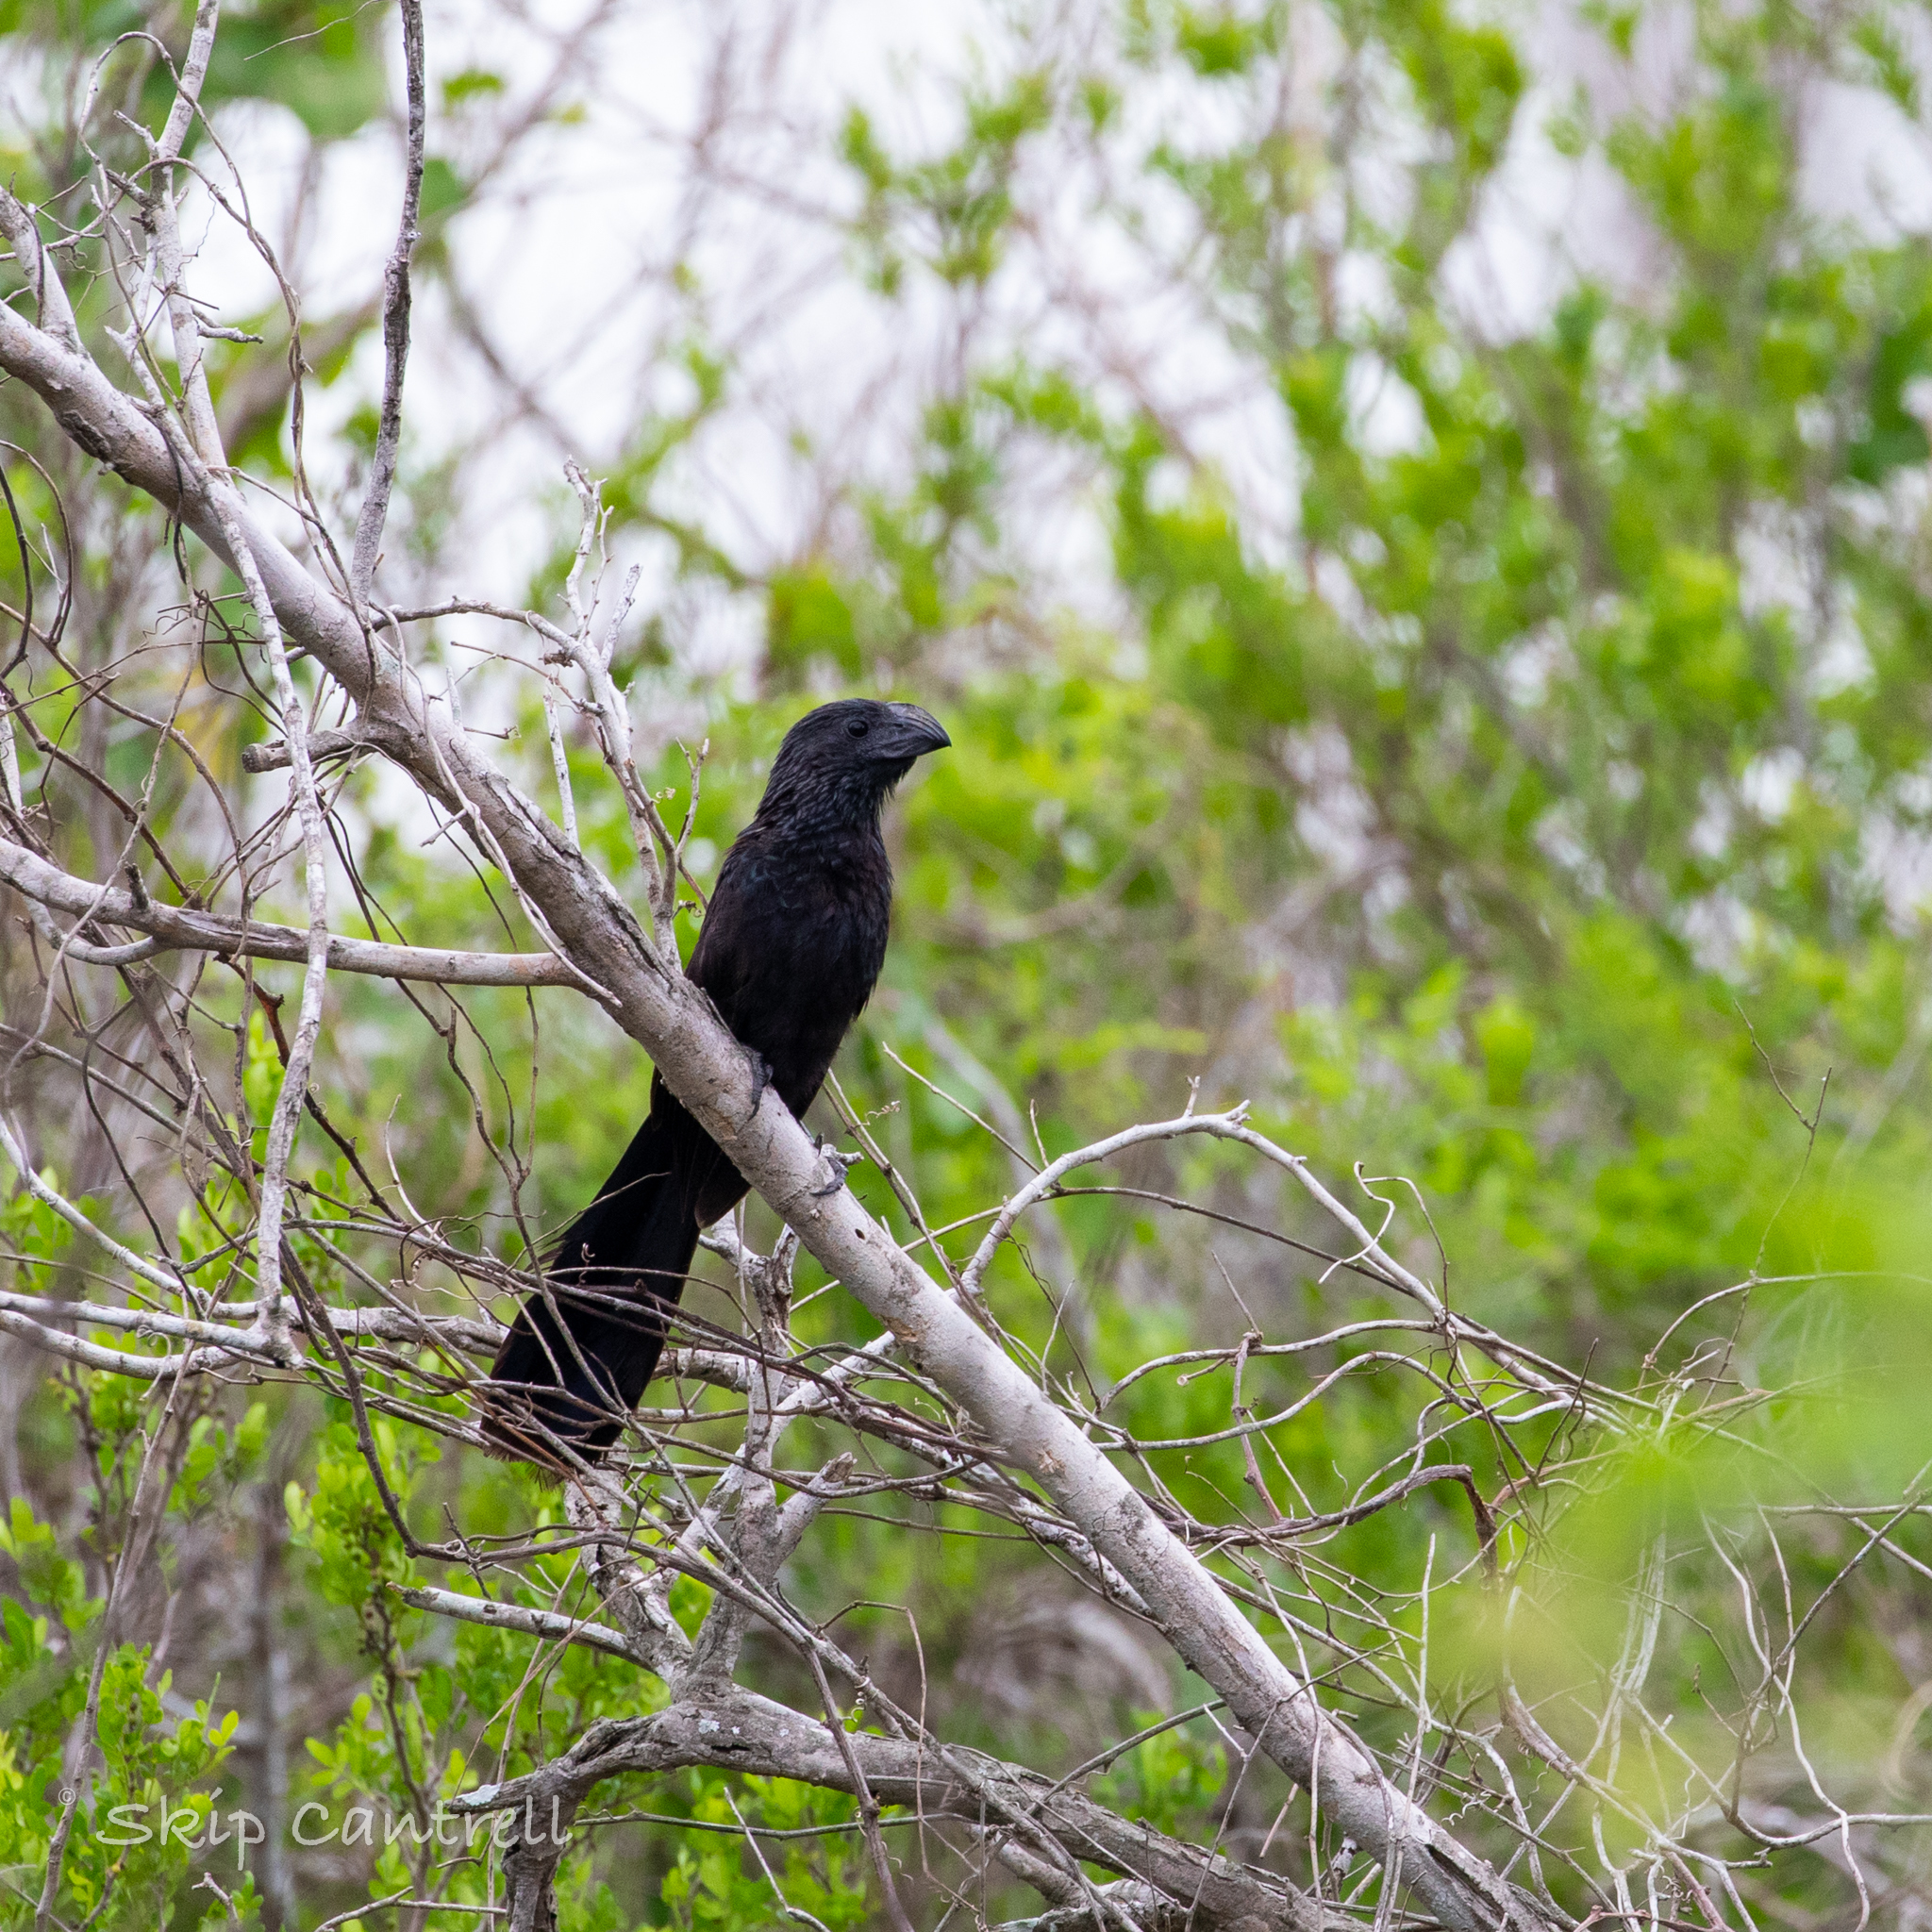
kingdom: Animalia
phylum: Chordata
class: Aves
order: Cuculiformes
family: Cuculidae
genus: Crotophaga
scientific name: Crotophaga sulcirostris
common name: Groove-billed ani
